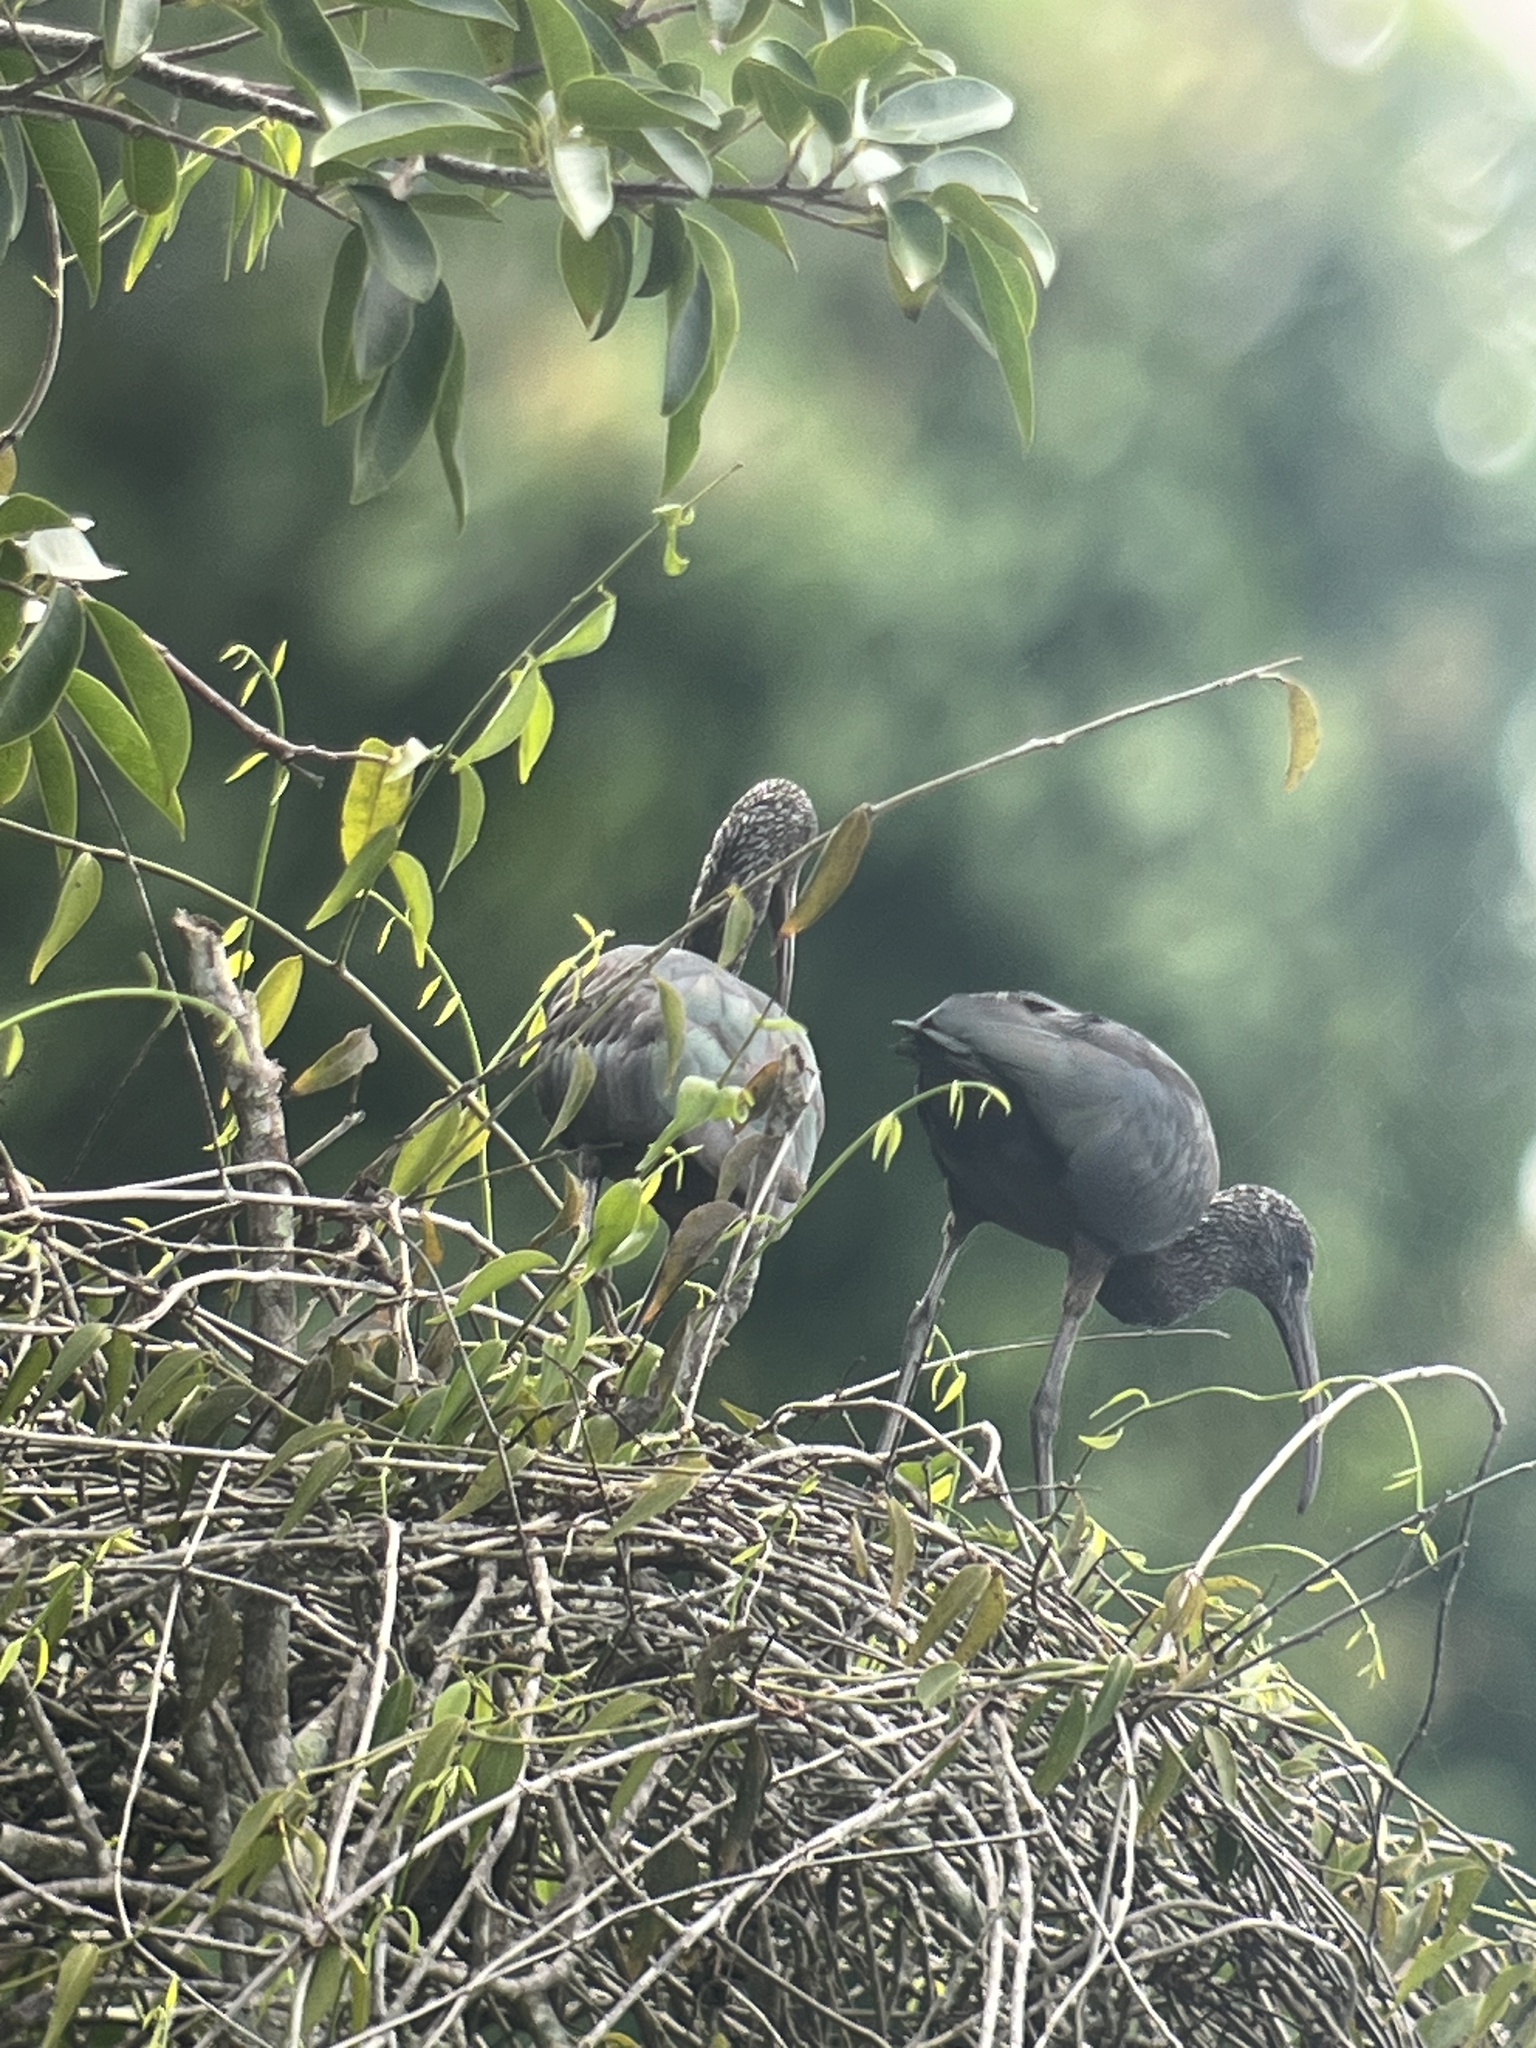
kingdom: Animalia
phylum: Chordata
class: Aves
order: Pelecaniformes
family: Threskiornithidae
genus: Plegadis
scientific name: Plegadis falcinellus
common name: Glossy ibis
